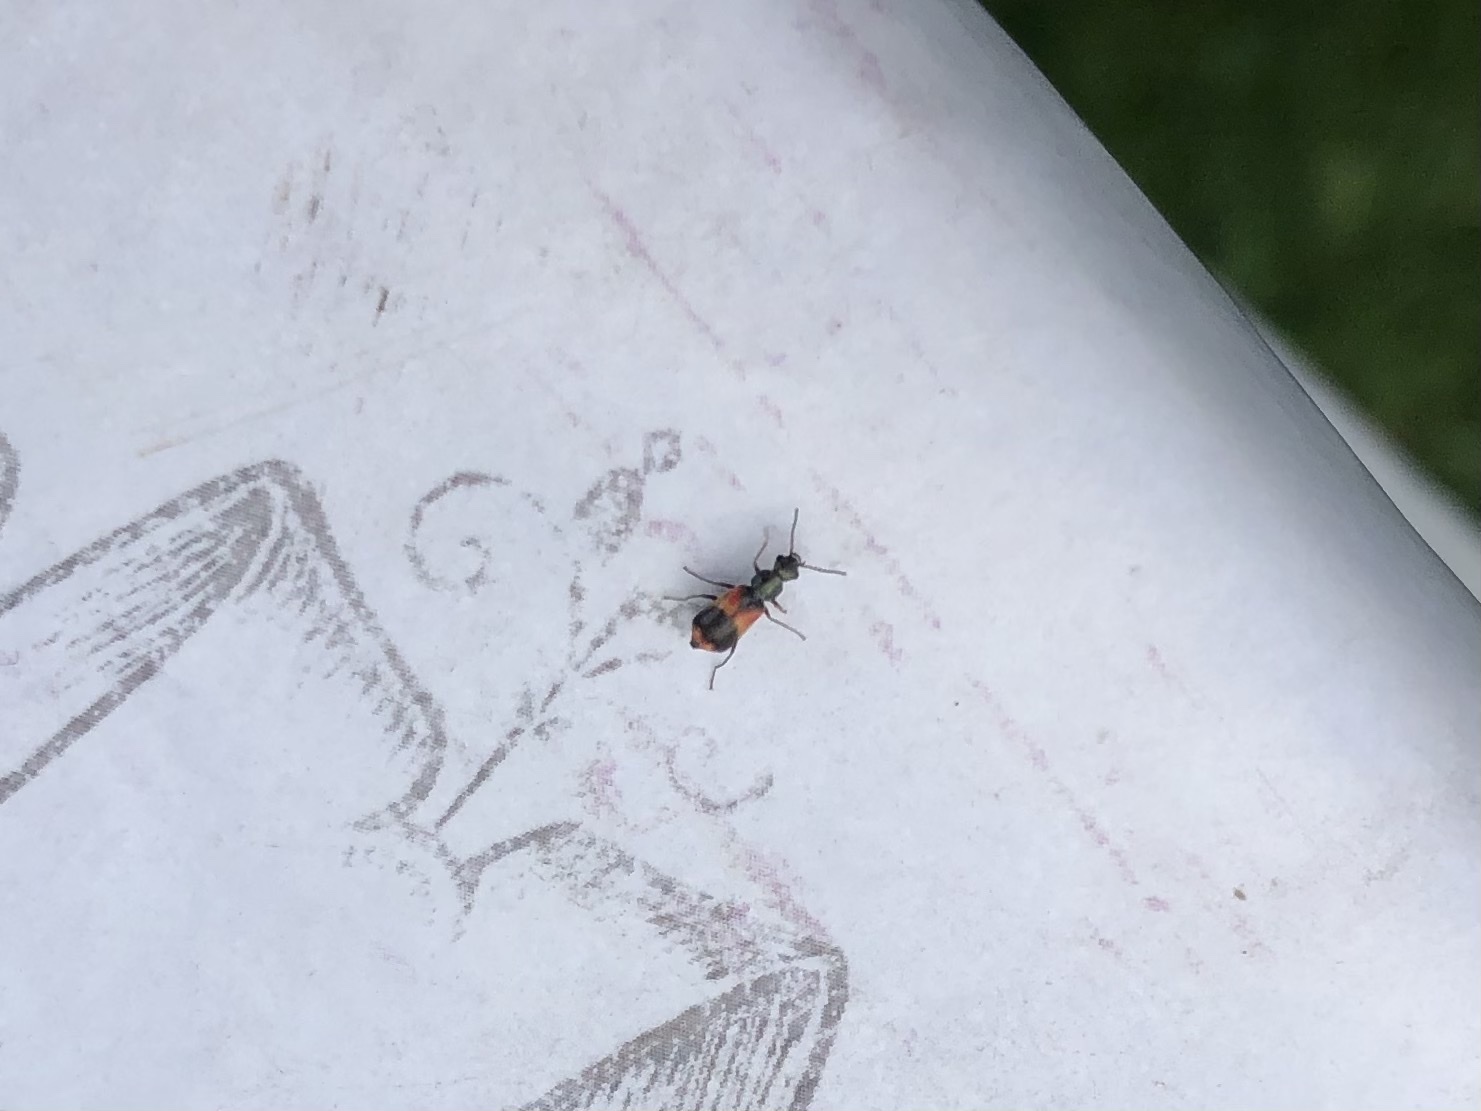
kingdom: Animalia
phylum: Arthropoda
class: Insecta
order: Coleoptera
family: Melyridae
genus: Anthocomus
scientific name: Anthocomus equestris
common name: Black-banded soft-winged flower beetle
